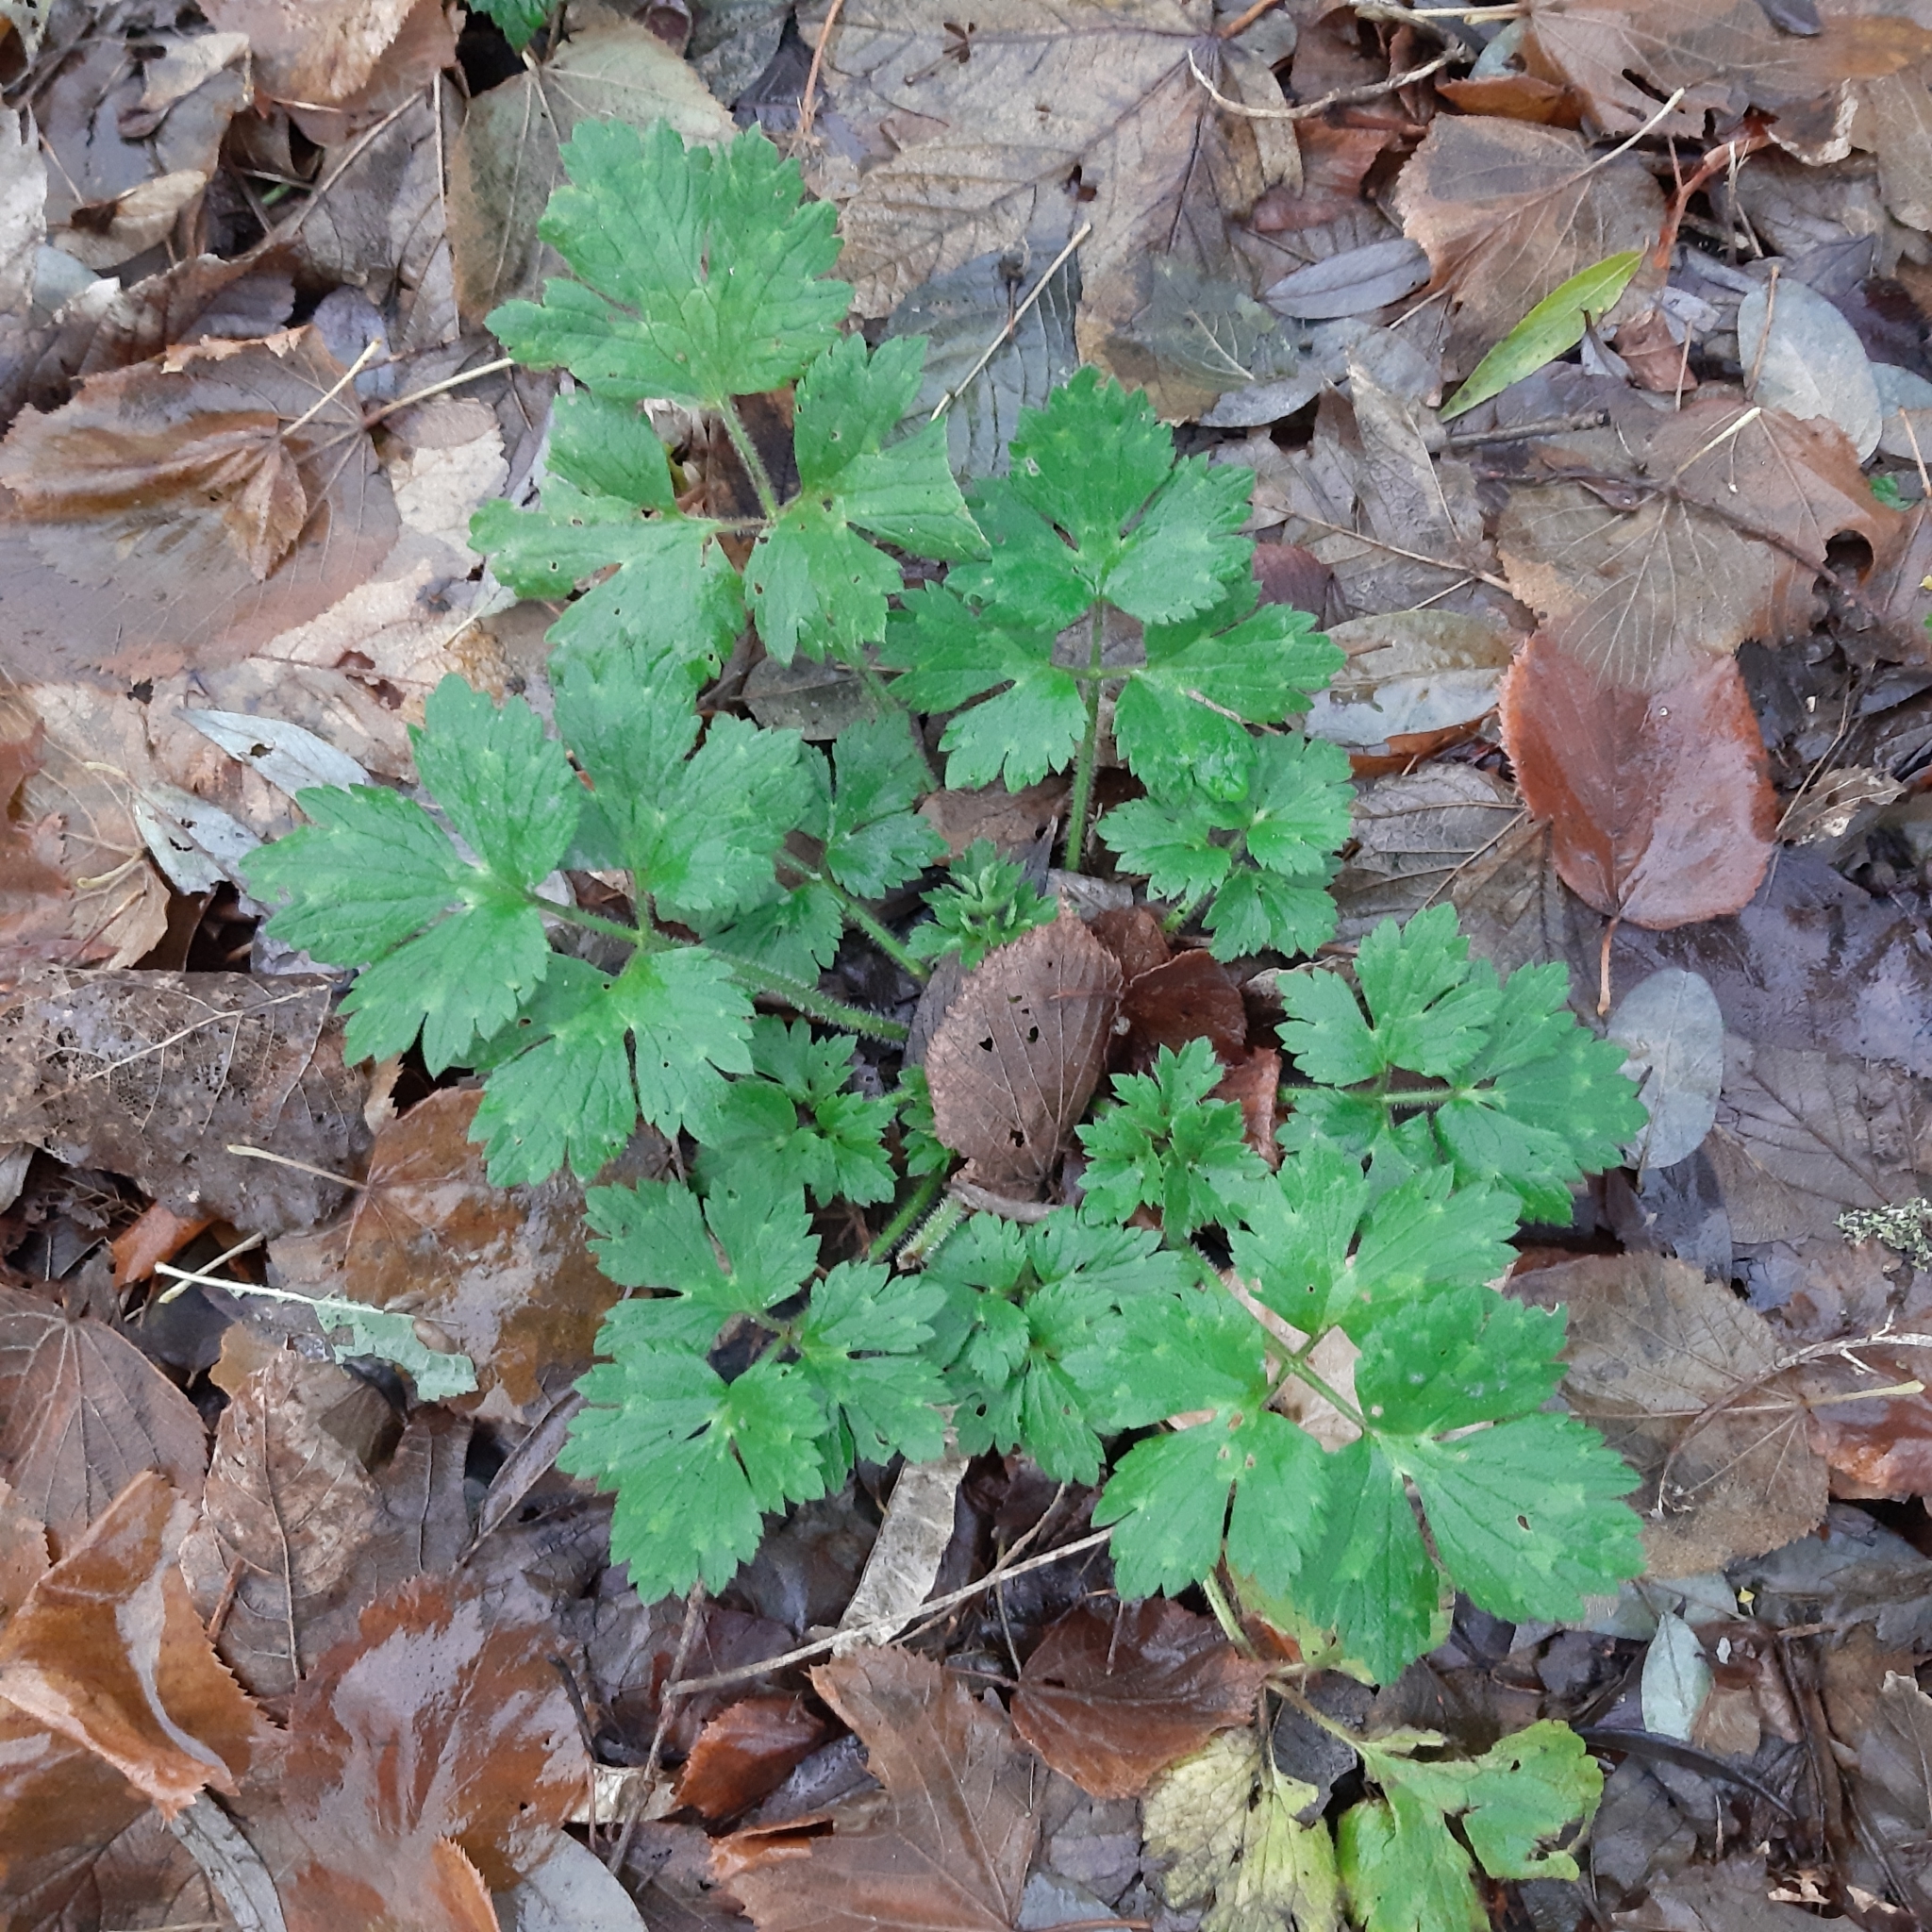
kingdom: Plantae
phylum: Tracheophyta
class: Magnoliopsida
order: Ranunculales
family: Ranunculaceae
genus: Ranunculus
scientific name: Ranunculus repens
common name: Creeping buttercup
